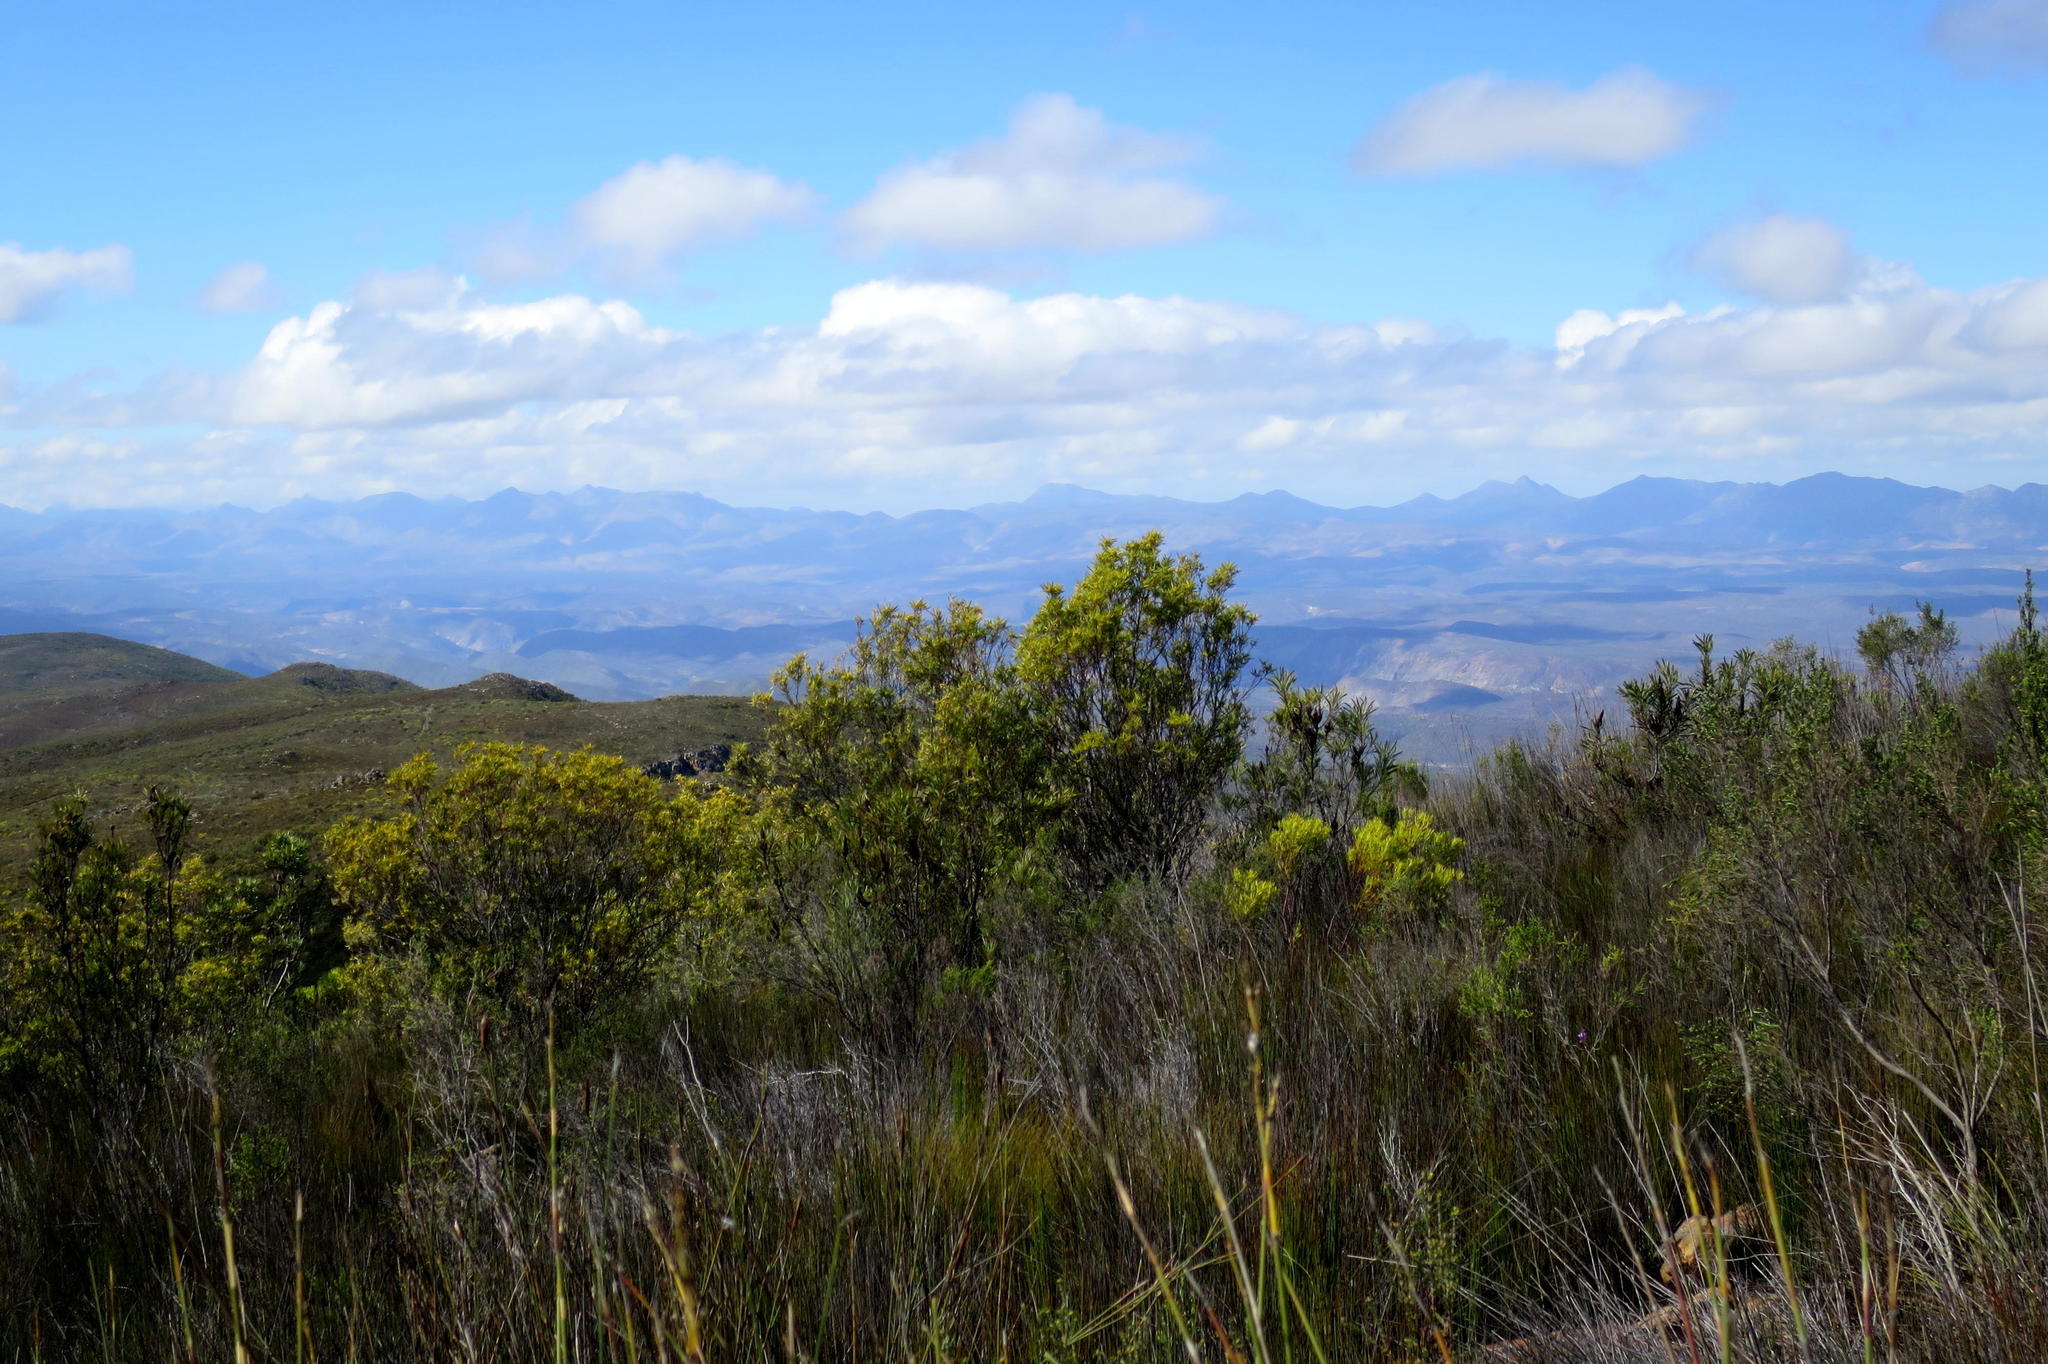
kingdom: Plantae
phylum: Tracheophyta
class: Magnoliopsida
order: Proteales
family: Proteaceae
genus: Leucadendron
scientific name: Leucadendron eucalyptifolium
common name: Gum-leaved conebush
